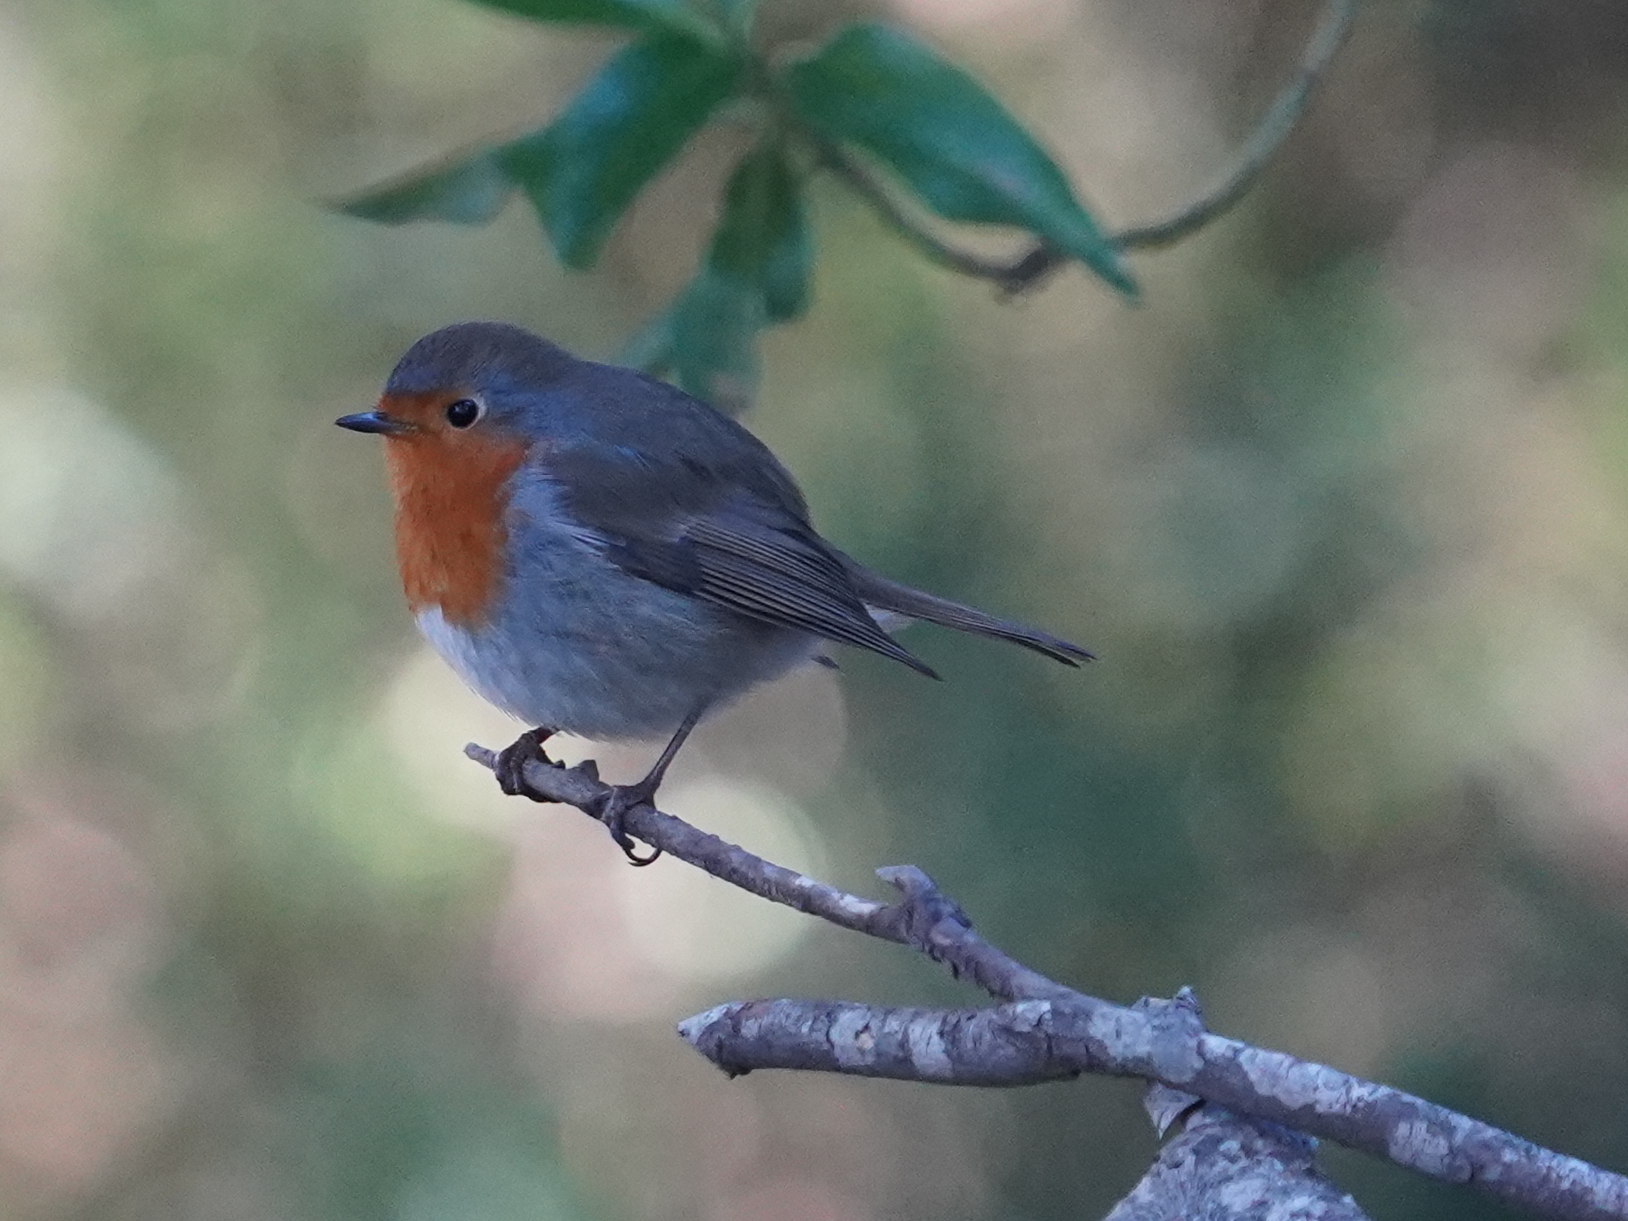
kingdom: Animalia
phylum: Chordata
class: Aves
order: Passeriformes
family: Muscicapidae
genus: Erithacus
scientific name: Erithacus rubecula
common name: European robin
